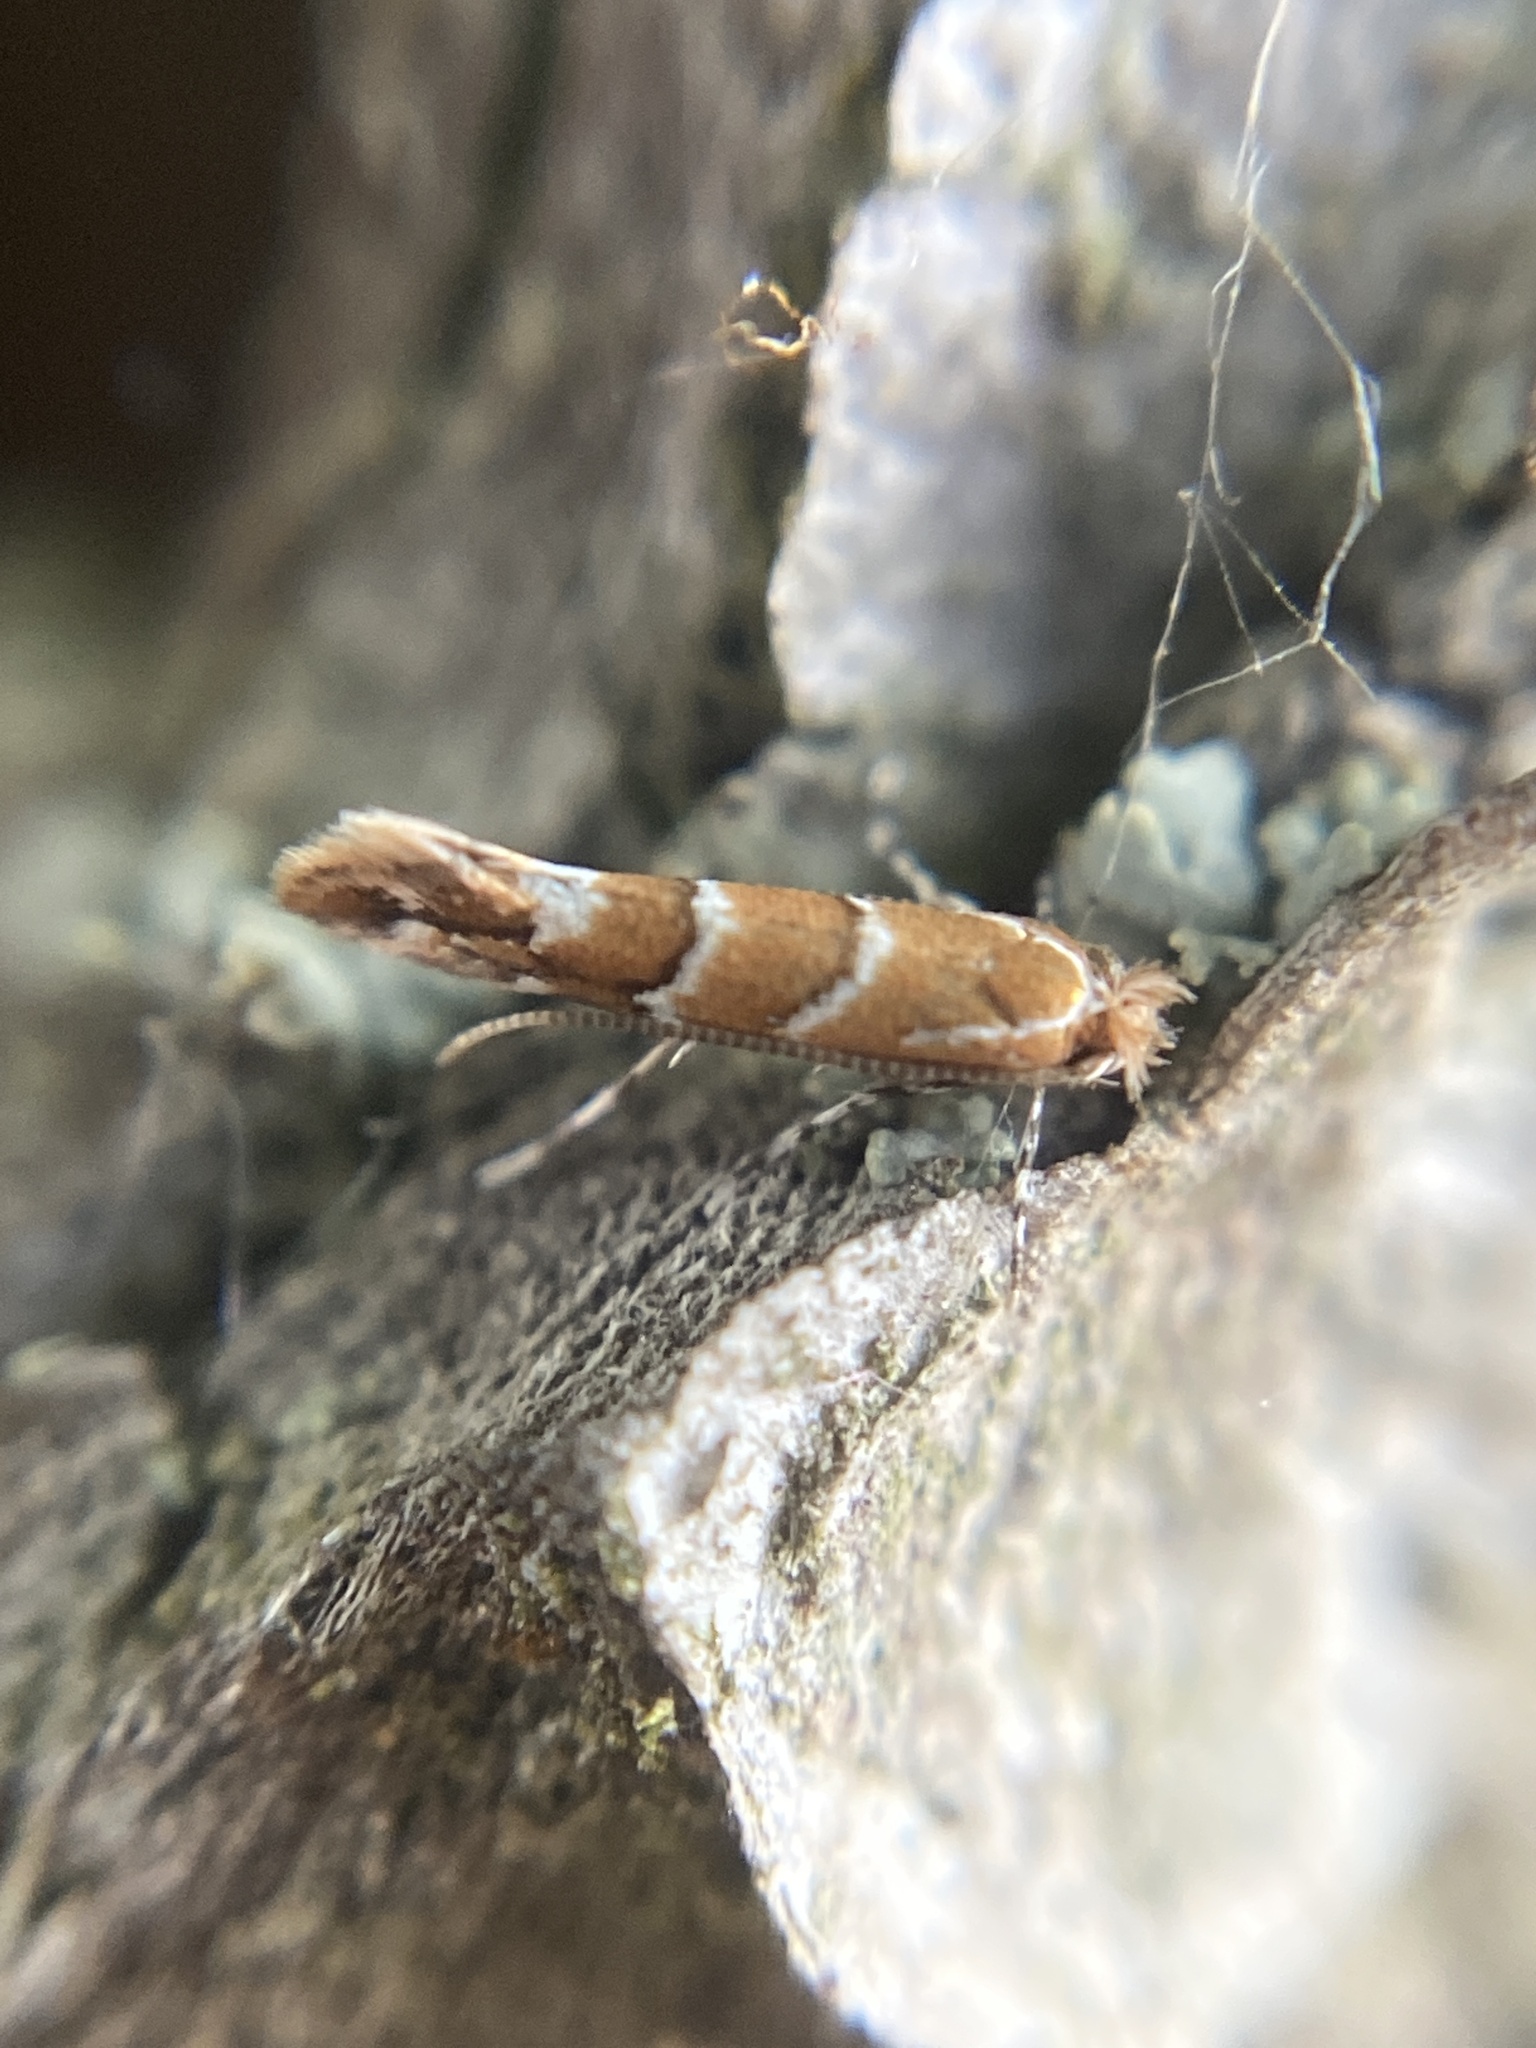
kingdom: Animalia
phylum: Arthropoda
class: Insecta
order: Lepidoptera
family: Gracillariidae
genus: Cameraria
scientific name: Cameraria ohridella
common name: Horse-chestnut leaf-miner
